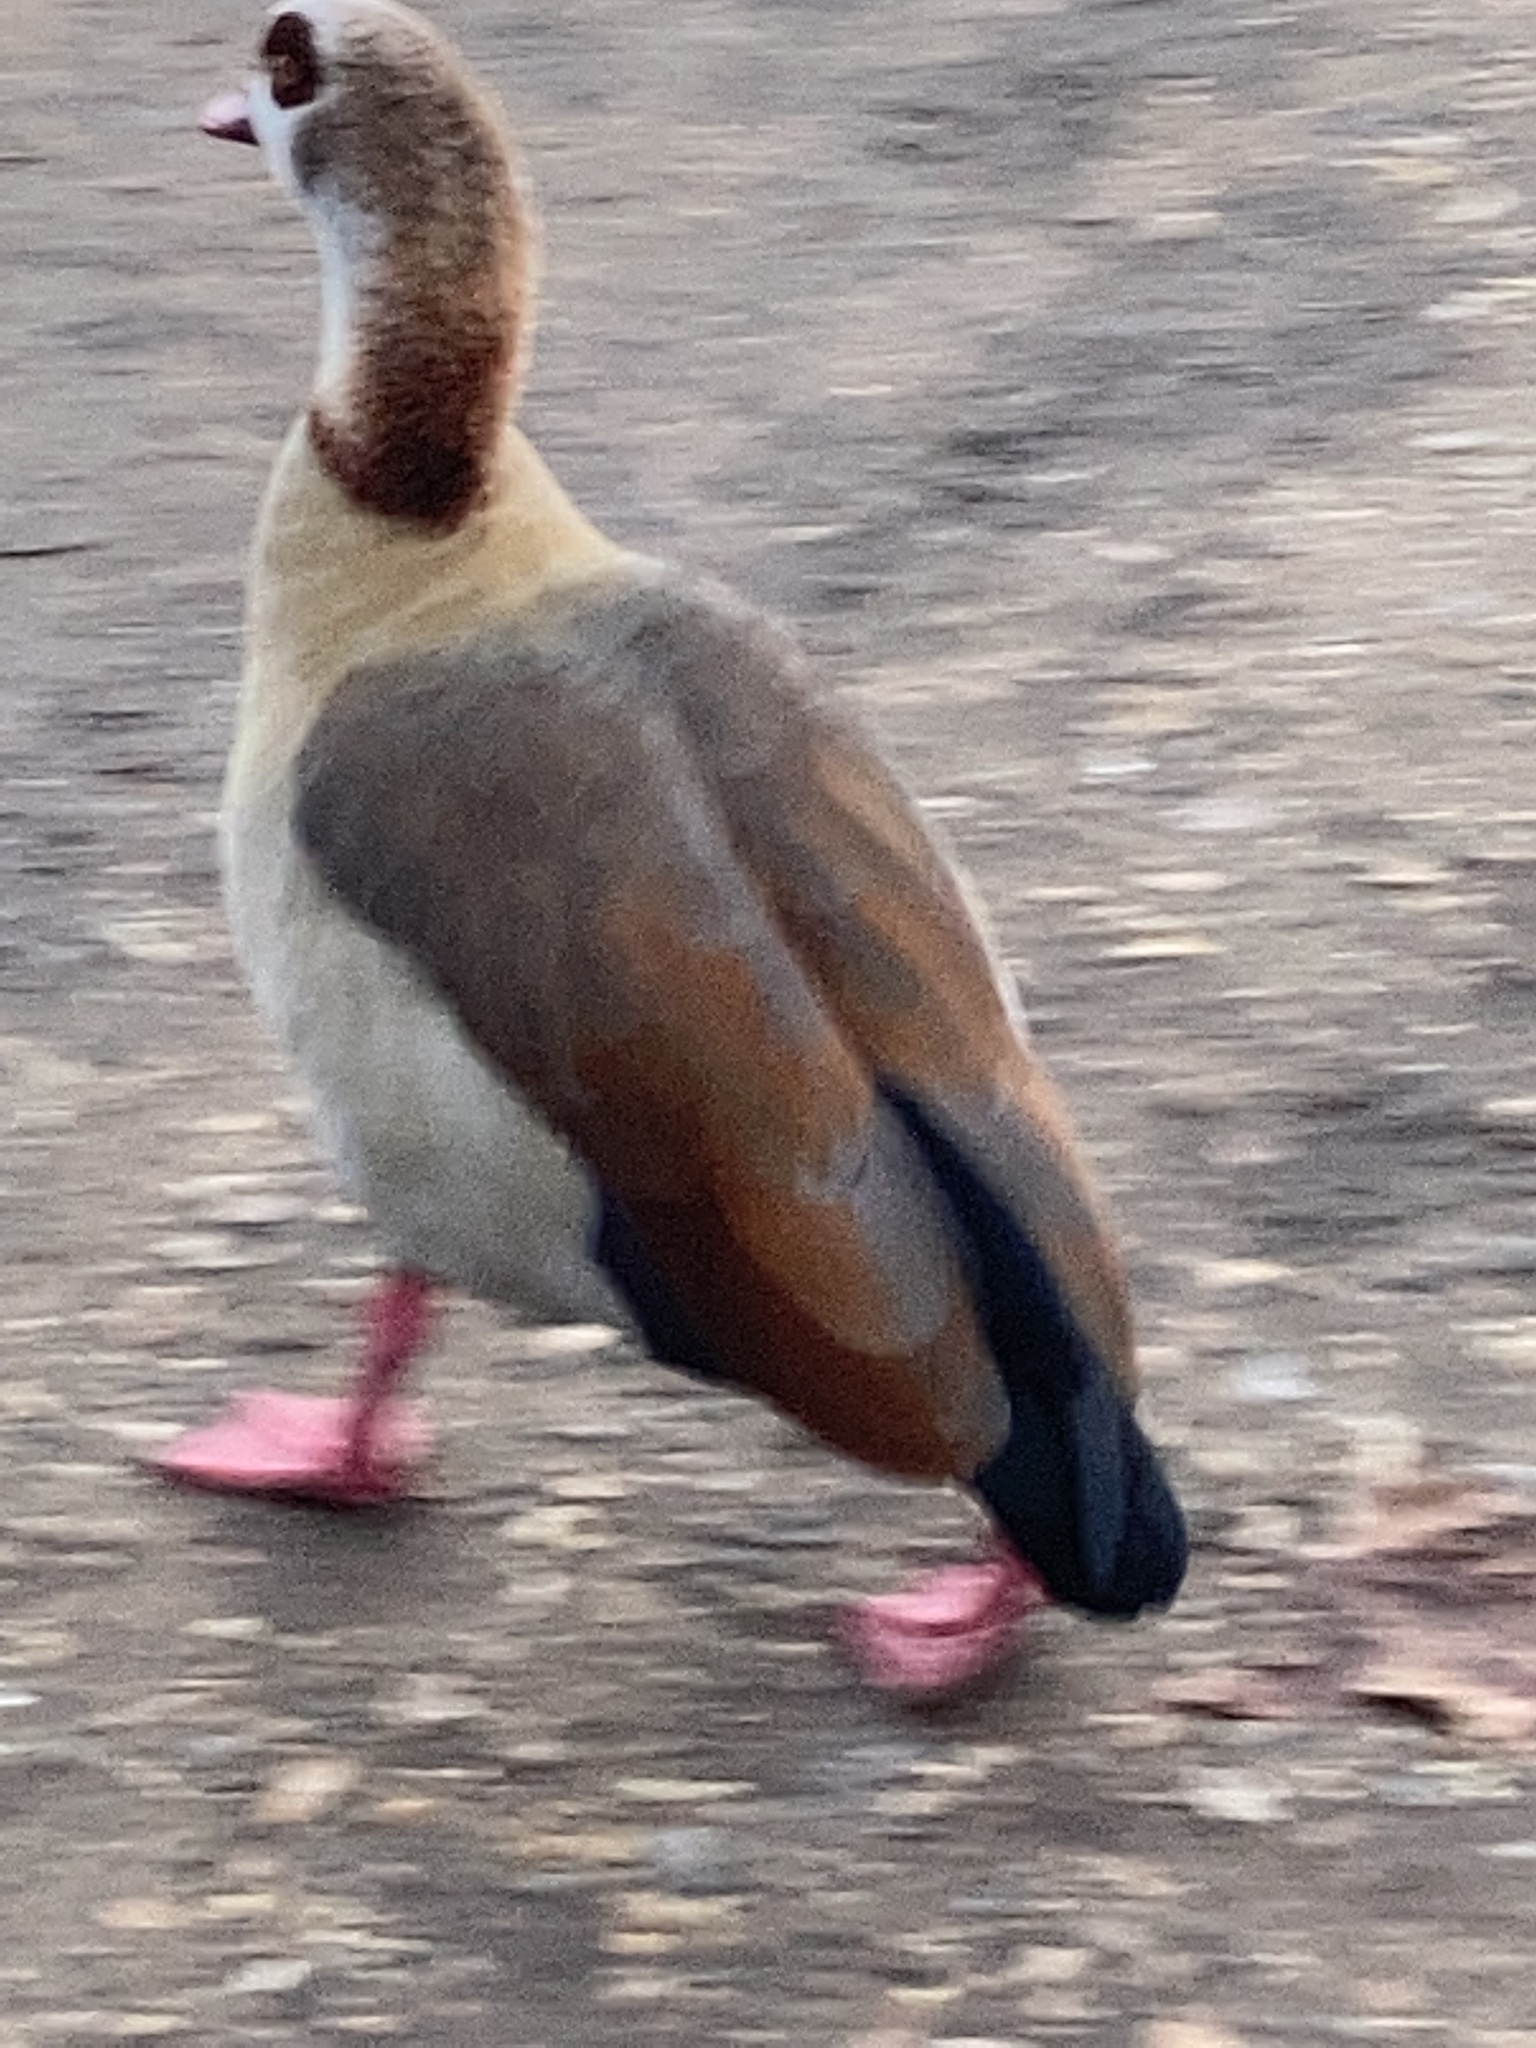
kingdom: Animalia
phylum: Chordata
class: Aves
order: Anseriformes
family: Anatidae
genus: Alopochen
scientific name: Alopochen aegyptiaca
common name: Egyptian goose
